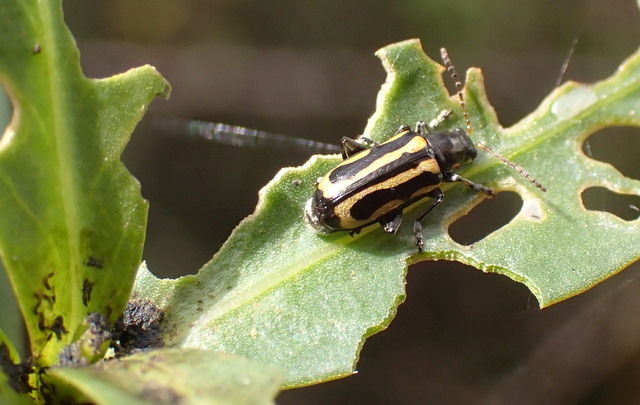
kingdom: Animalia
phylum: Arthropoda
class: Insecta
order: Coleoptera
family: Chrysomelidae
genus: Agasicles
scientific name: Agasicles hygrophila
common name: Alligatorweed flea beetle
